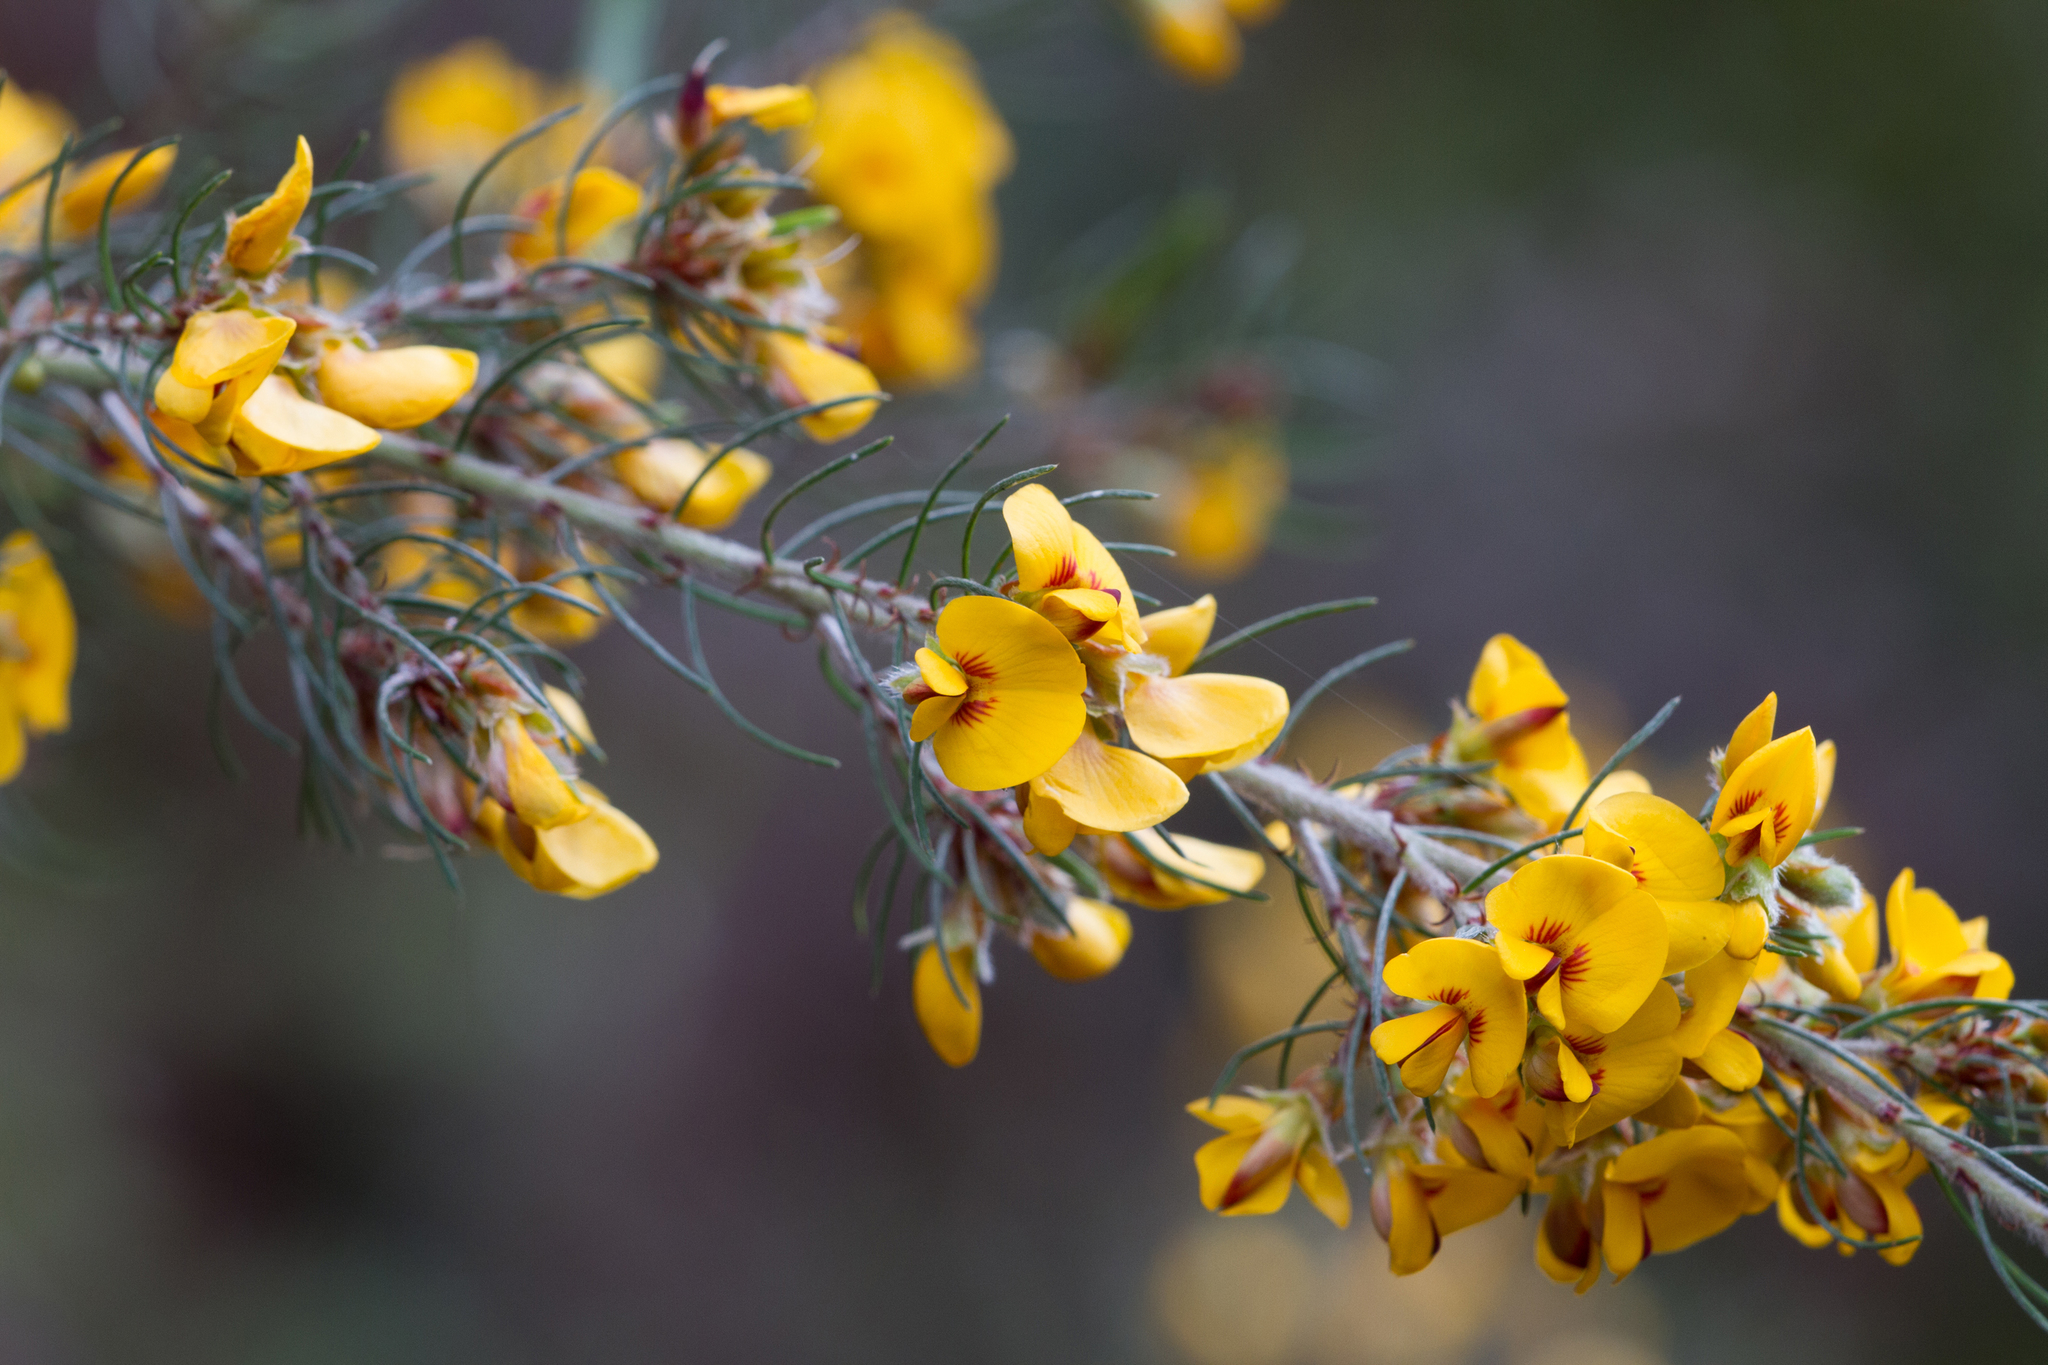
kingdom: Plantae
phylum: Tracheophyta
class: Magnoliopsida
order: Fabales
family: Fabaceae
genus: Pultenaea
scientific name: Pultenaea mollis
